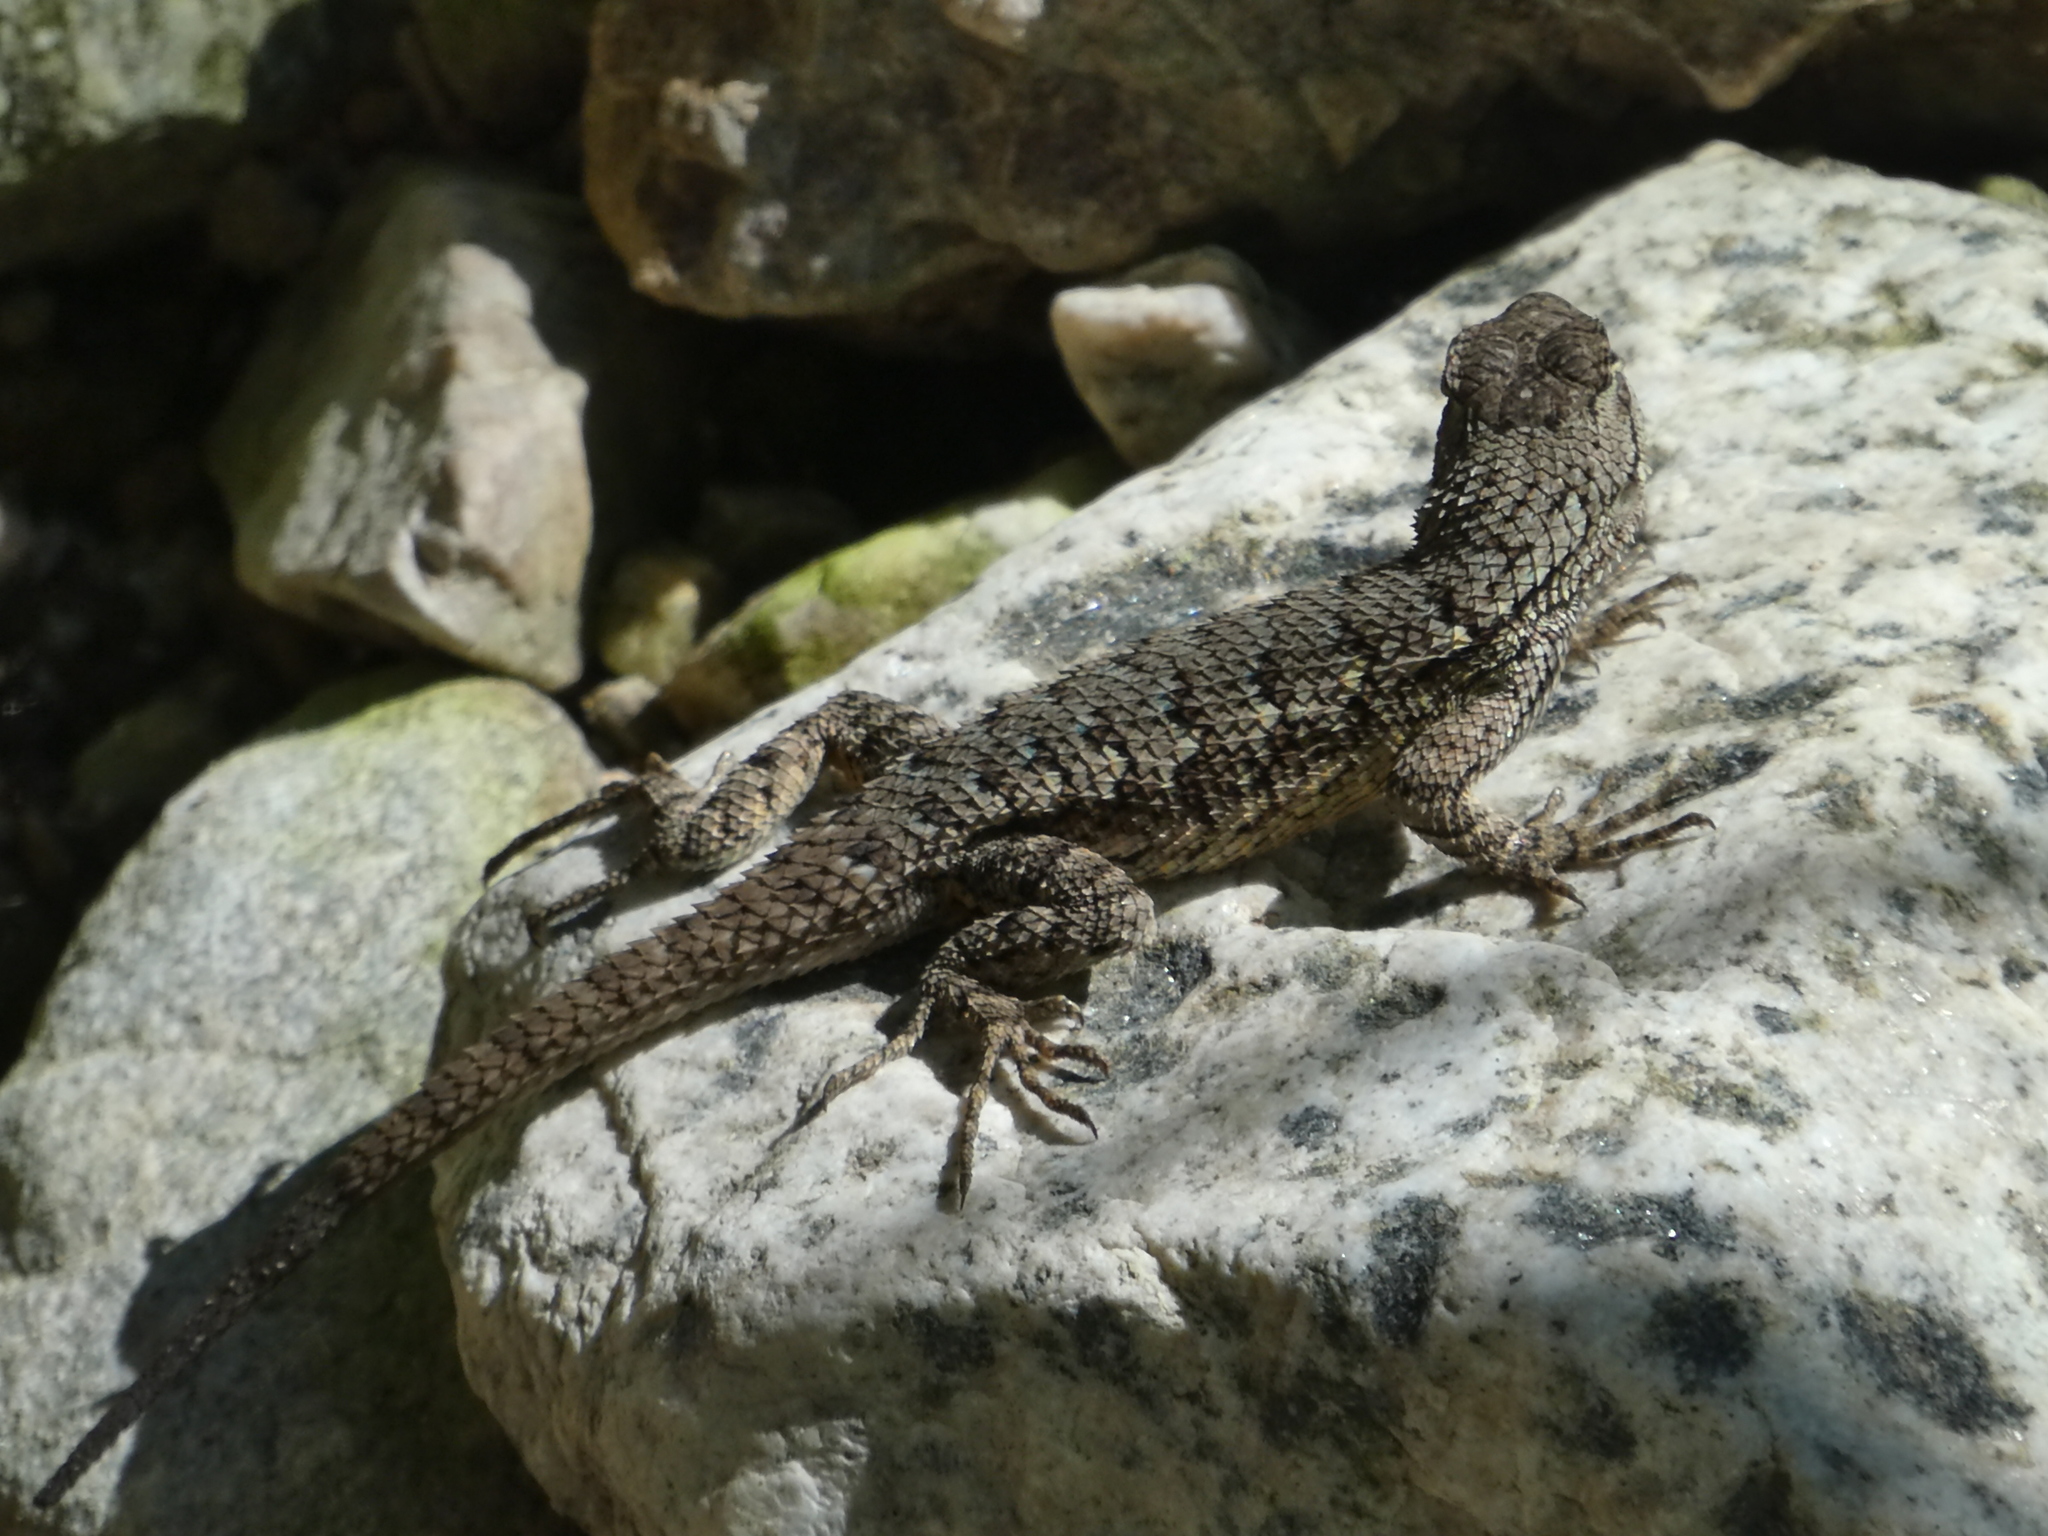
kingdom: Animalia
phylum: Chordata
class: Squamata
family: Phrynosomatidae
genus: Sceloporus
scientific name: Sceloporus occidentalis
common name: Western fence lizard
